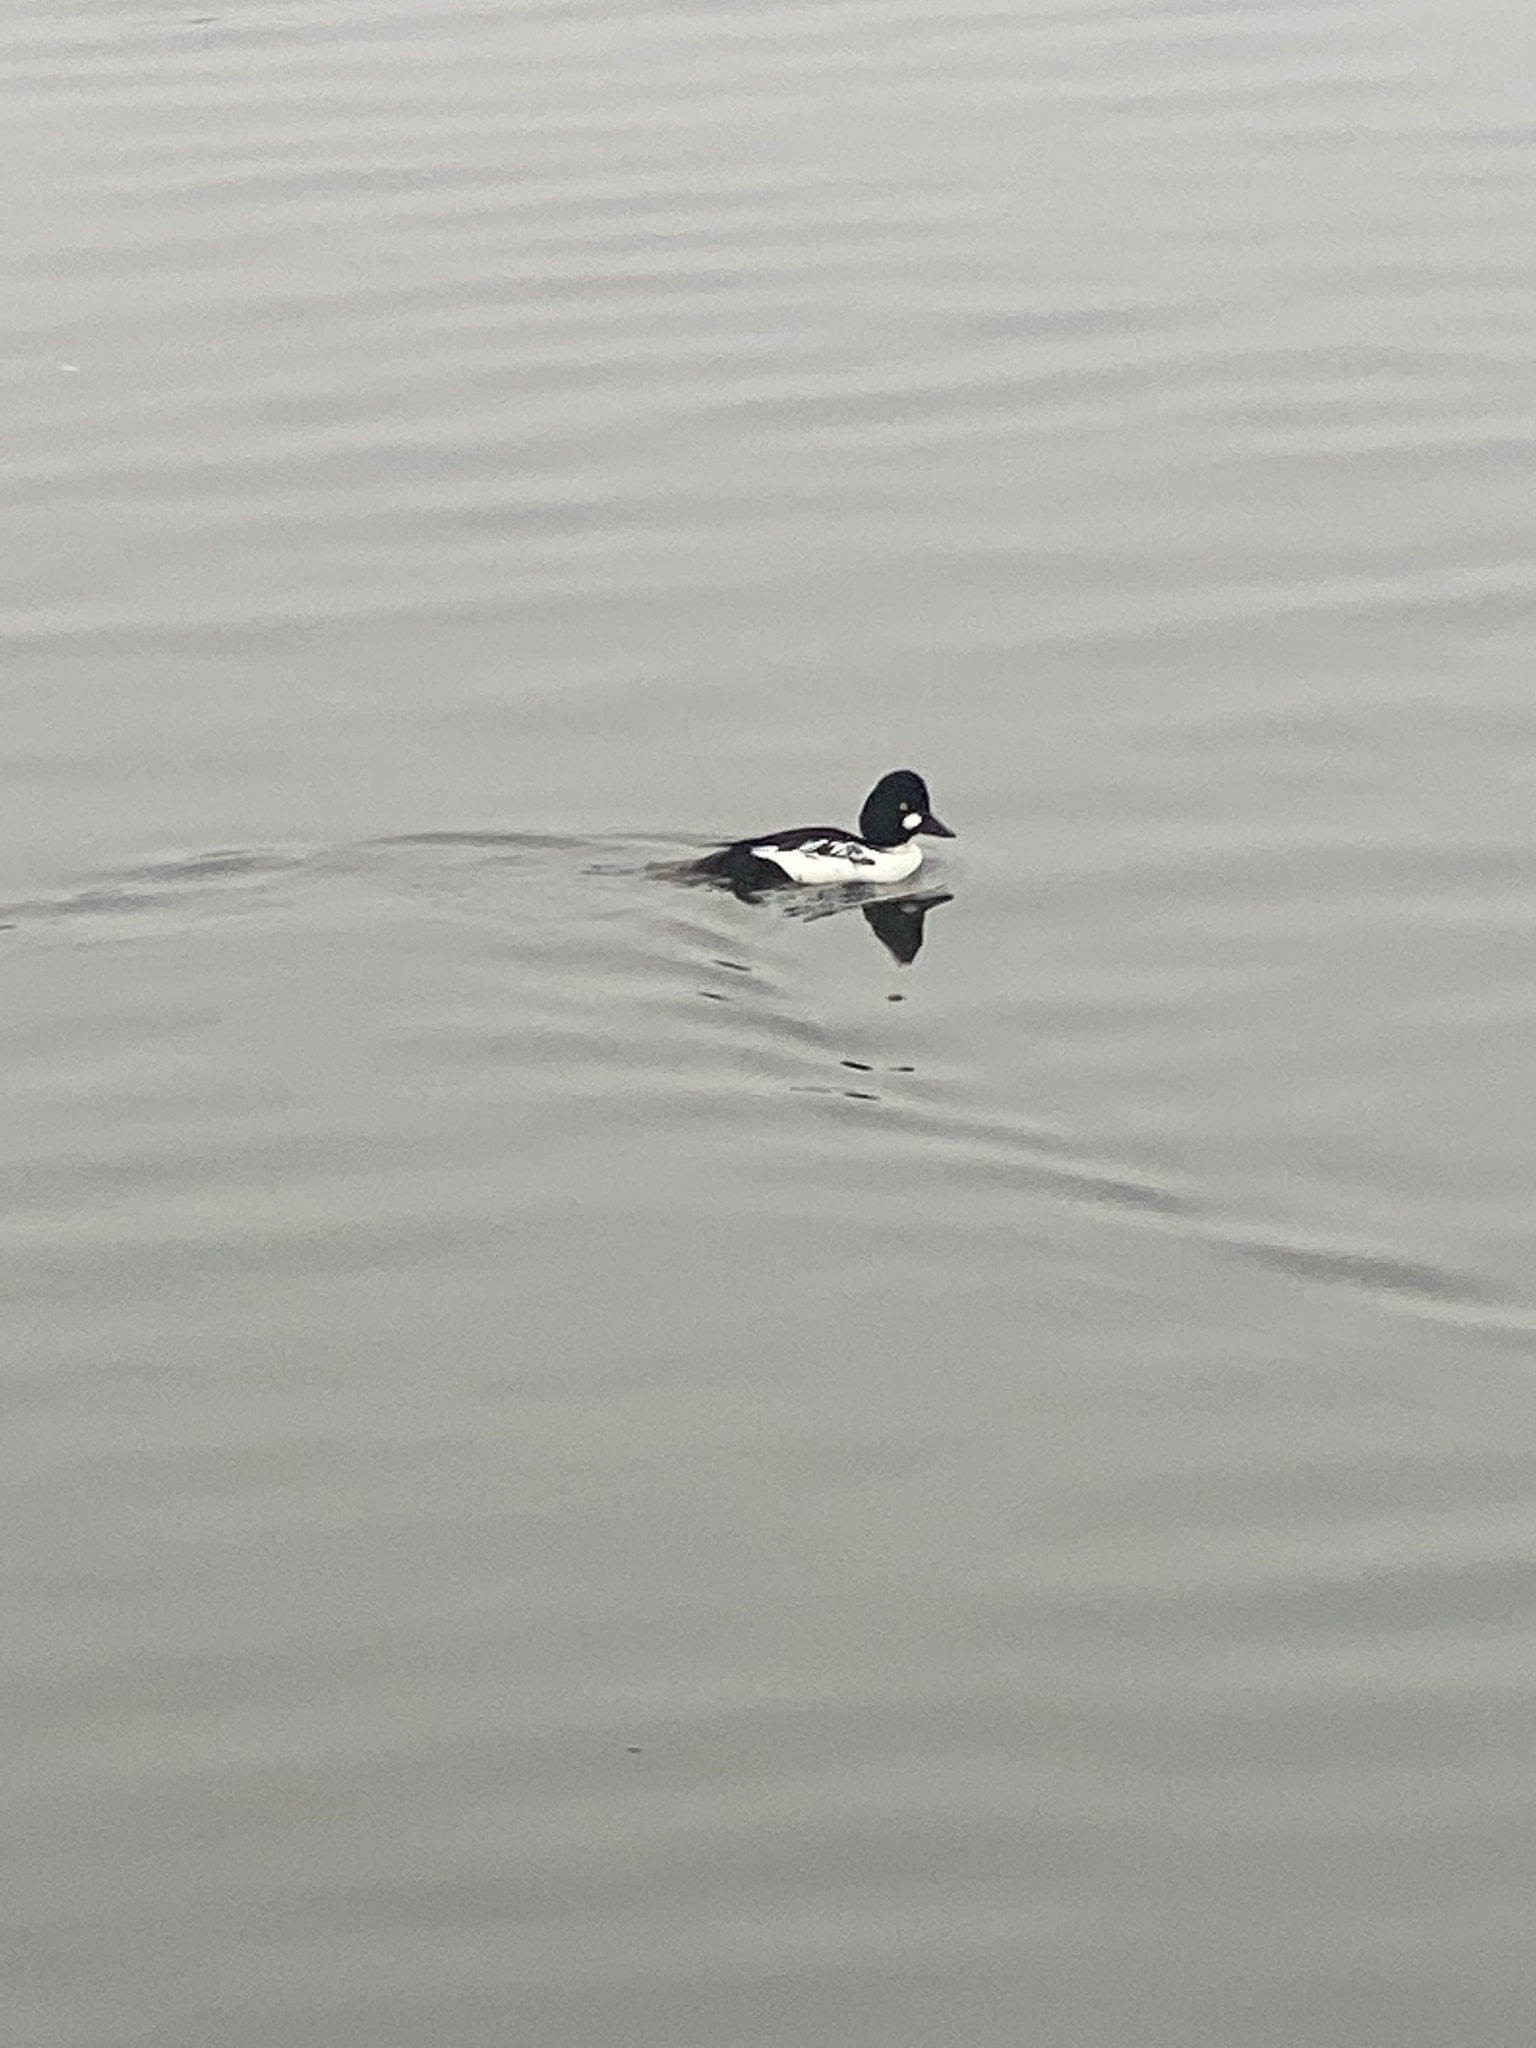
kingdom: Animalia
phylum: Chordata
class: Aves
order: Anseriformes
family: Anatidae
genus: Bucephala
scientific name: Bucephala clangula
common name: Common goldeneye
